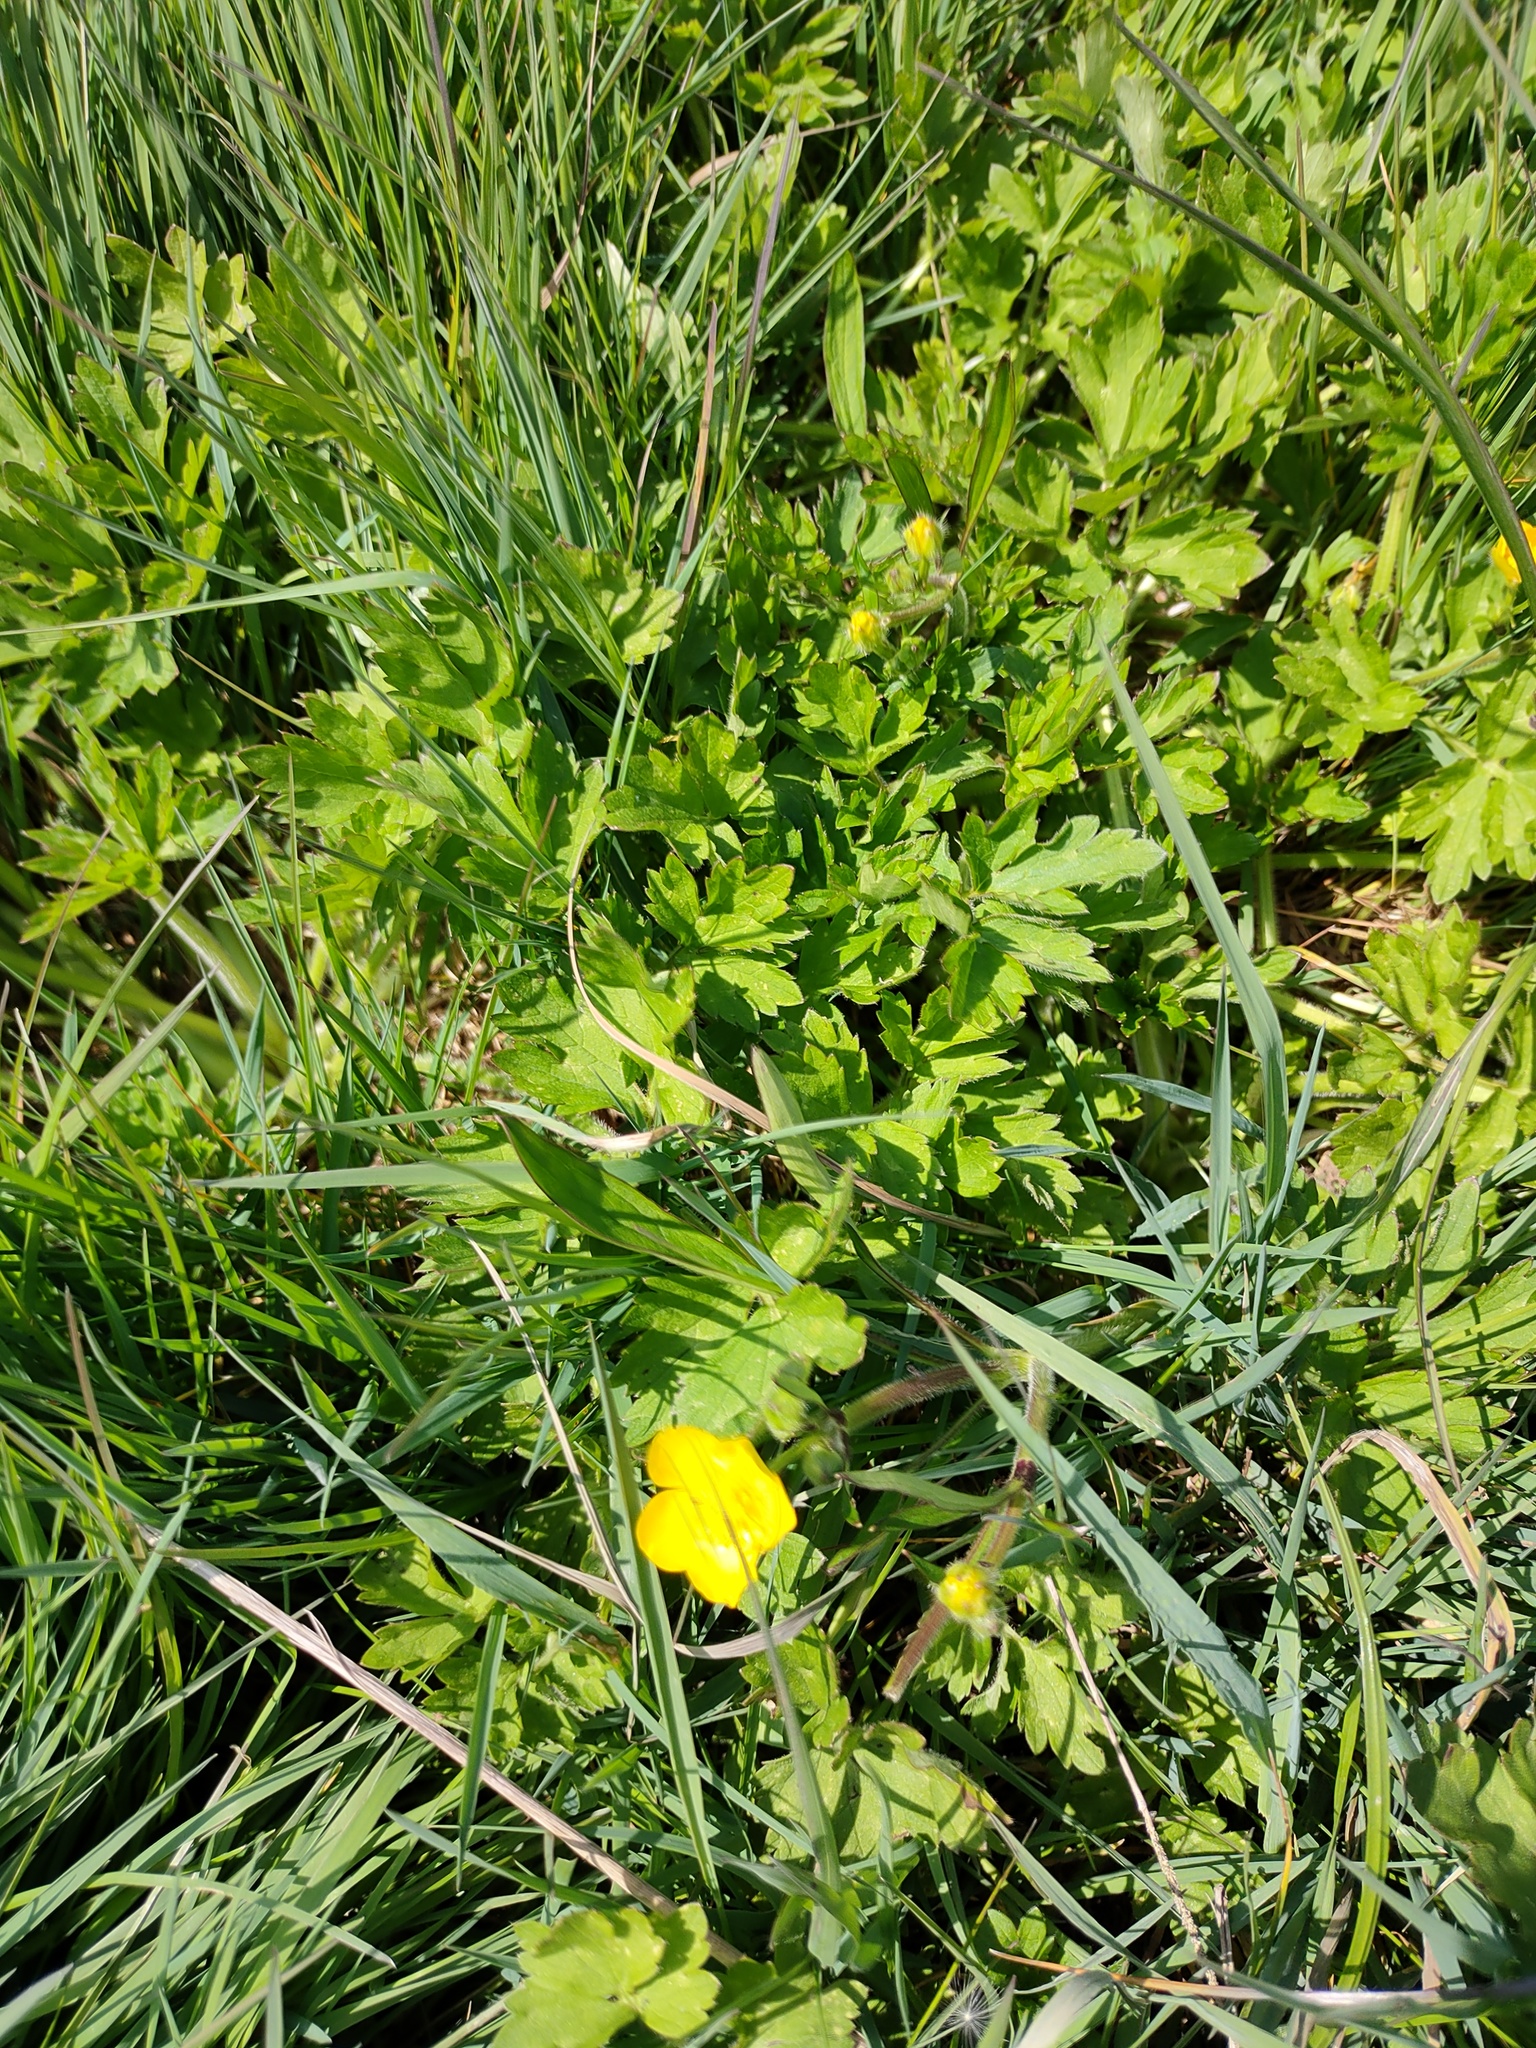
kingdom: Plantae
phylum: Tracheophyta
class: Magnoliopsida
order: Ranunculales
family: Ranunculaceae
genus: Ranunculus
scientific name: Ranunculus repens
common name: Creeping buttercup
